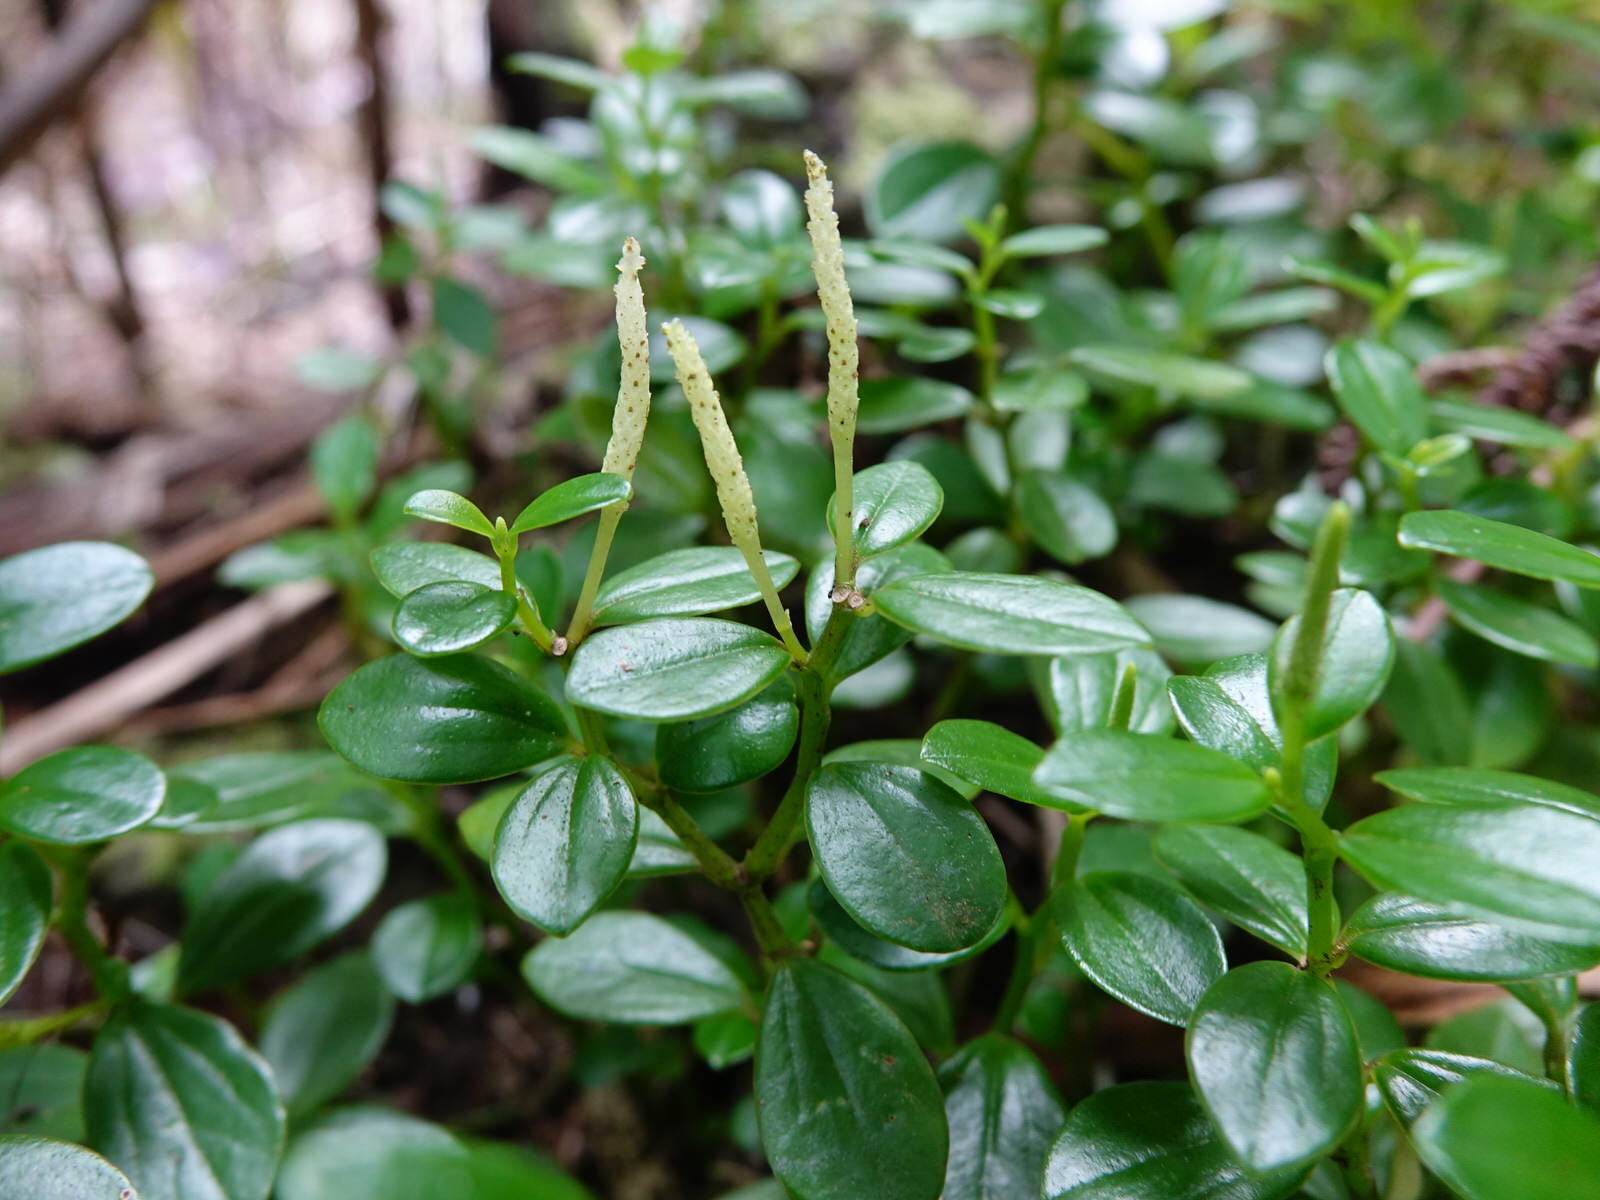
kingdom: Plantae
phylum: Tracheophyta
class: Magnoliopsida
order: Piperales
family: Piperaceae
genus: Peperomia
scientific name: Peperomia urvilleana
